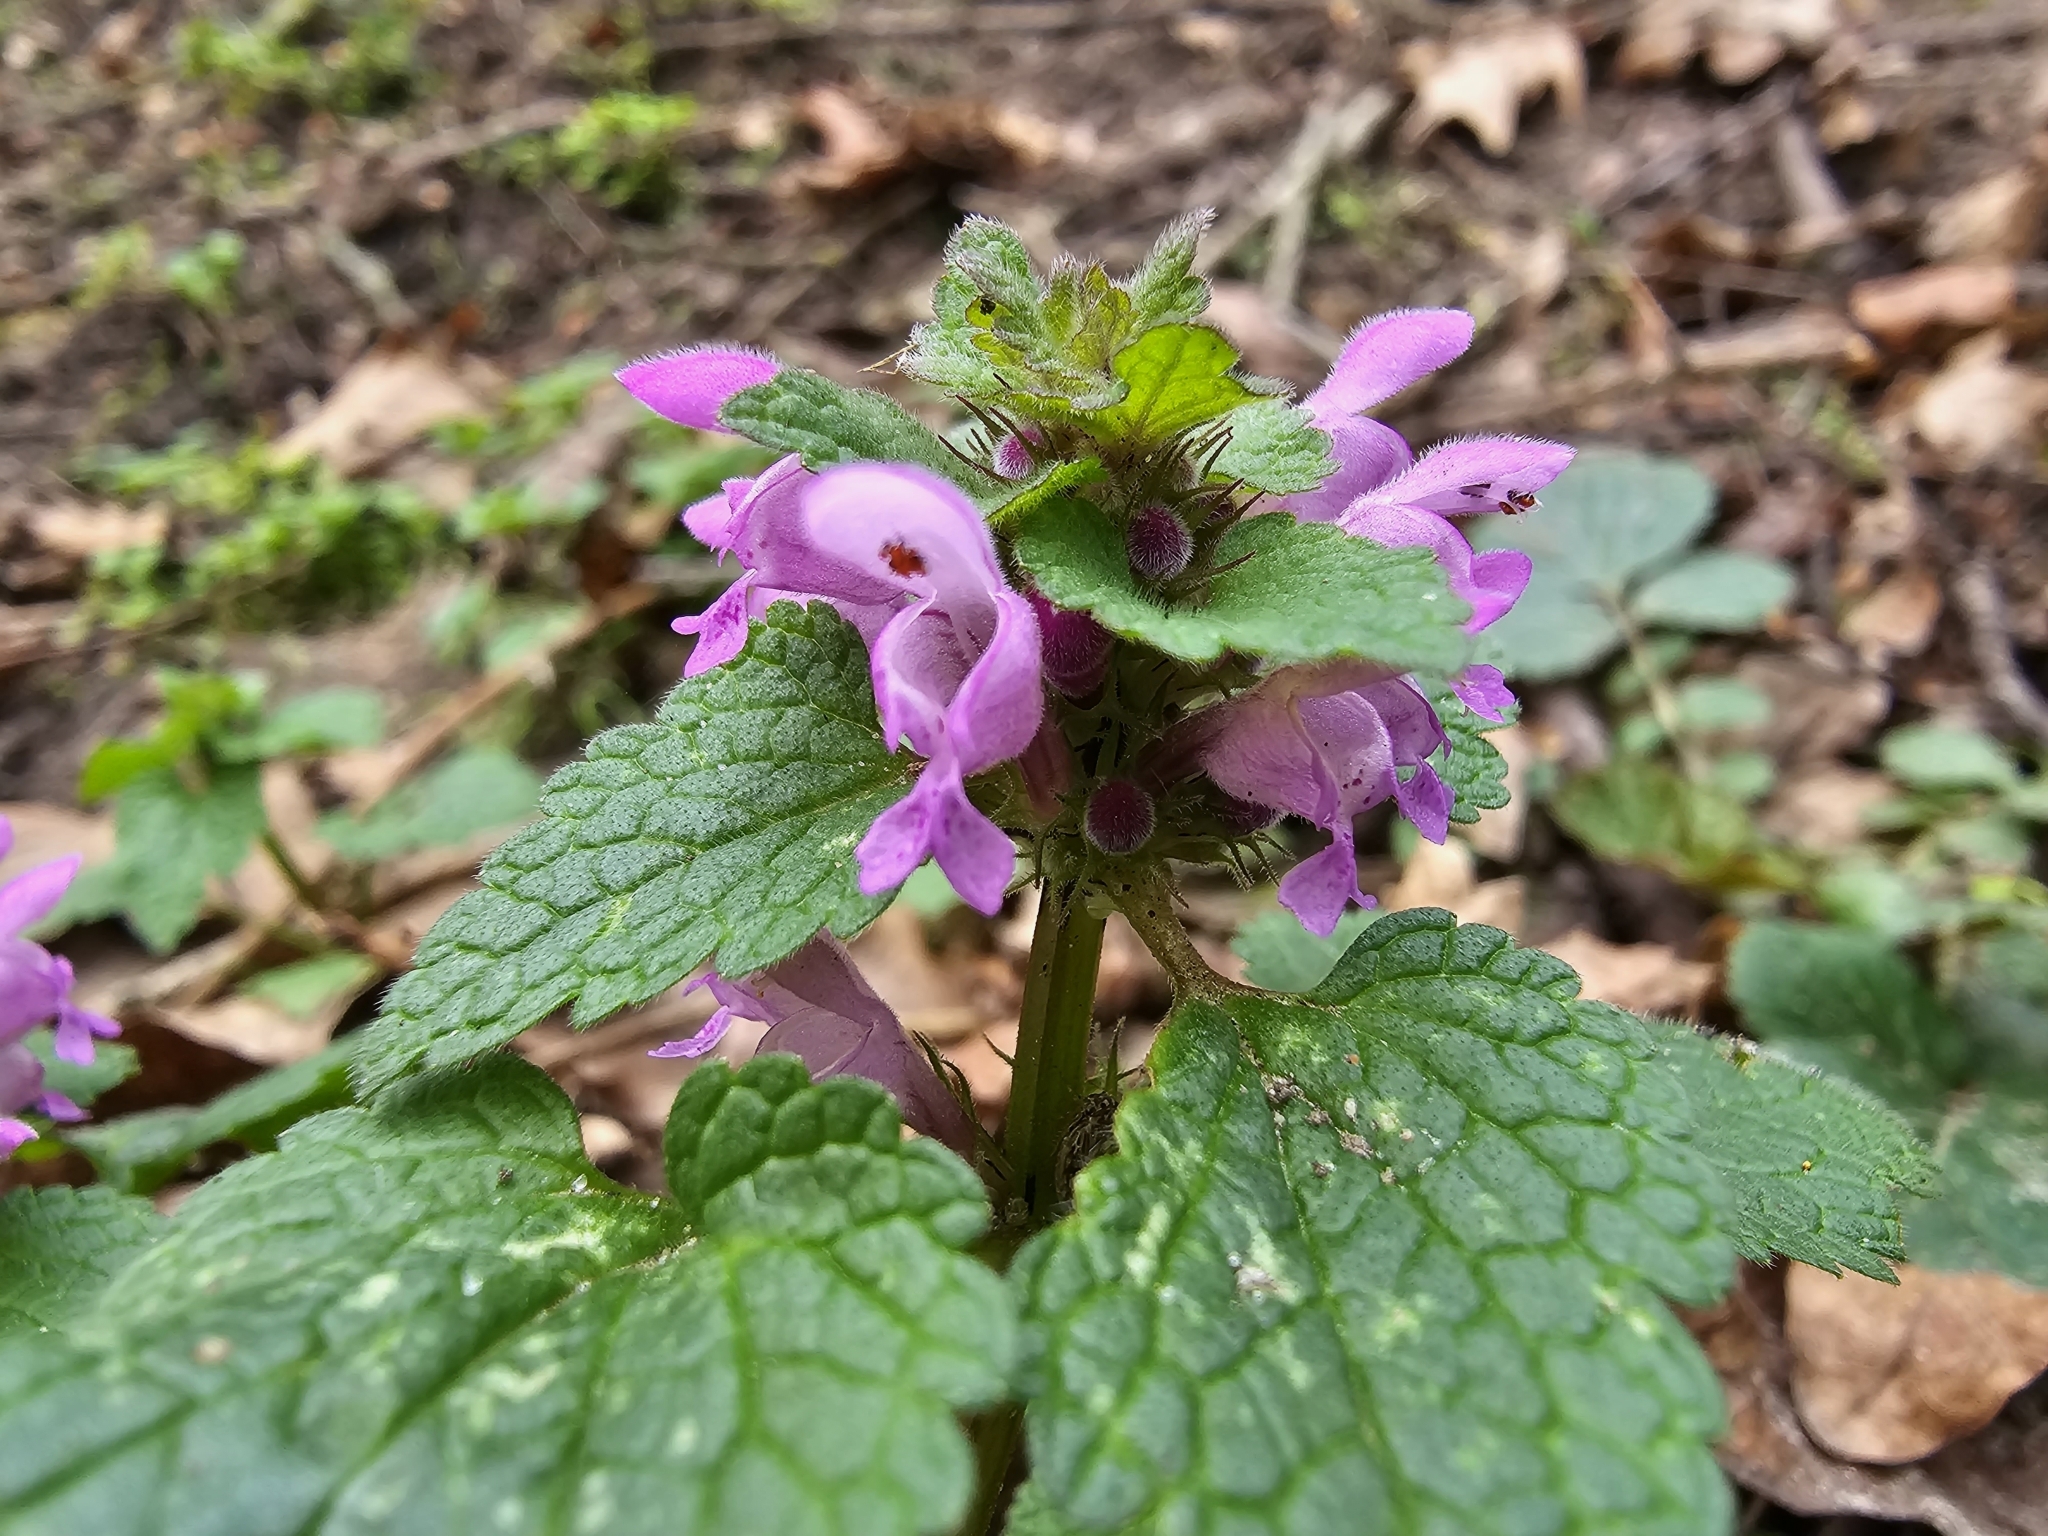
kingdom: Plantae
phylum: Tracheophyta
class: Magnoliopsida
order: Lamiales
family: Lamiaceae
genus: Lamium
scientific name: Lamium purpureum
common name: Red dead-nettle
